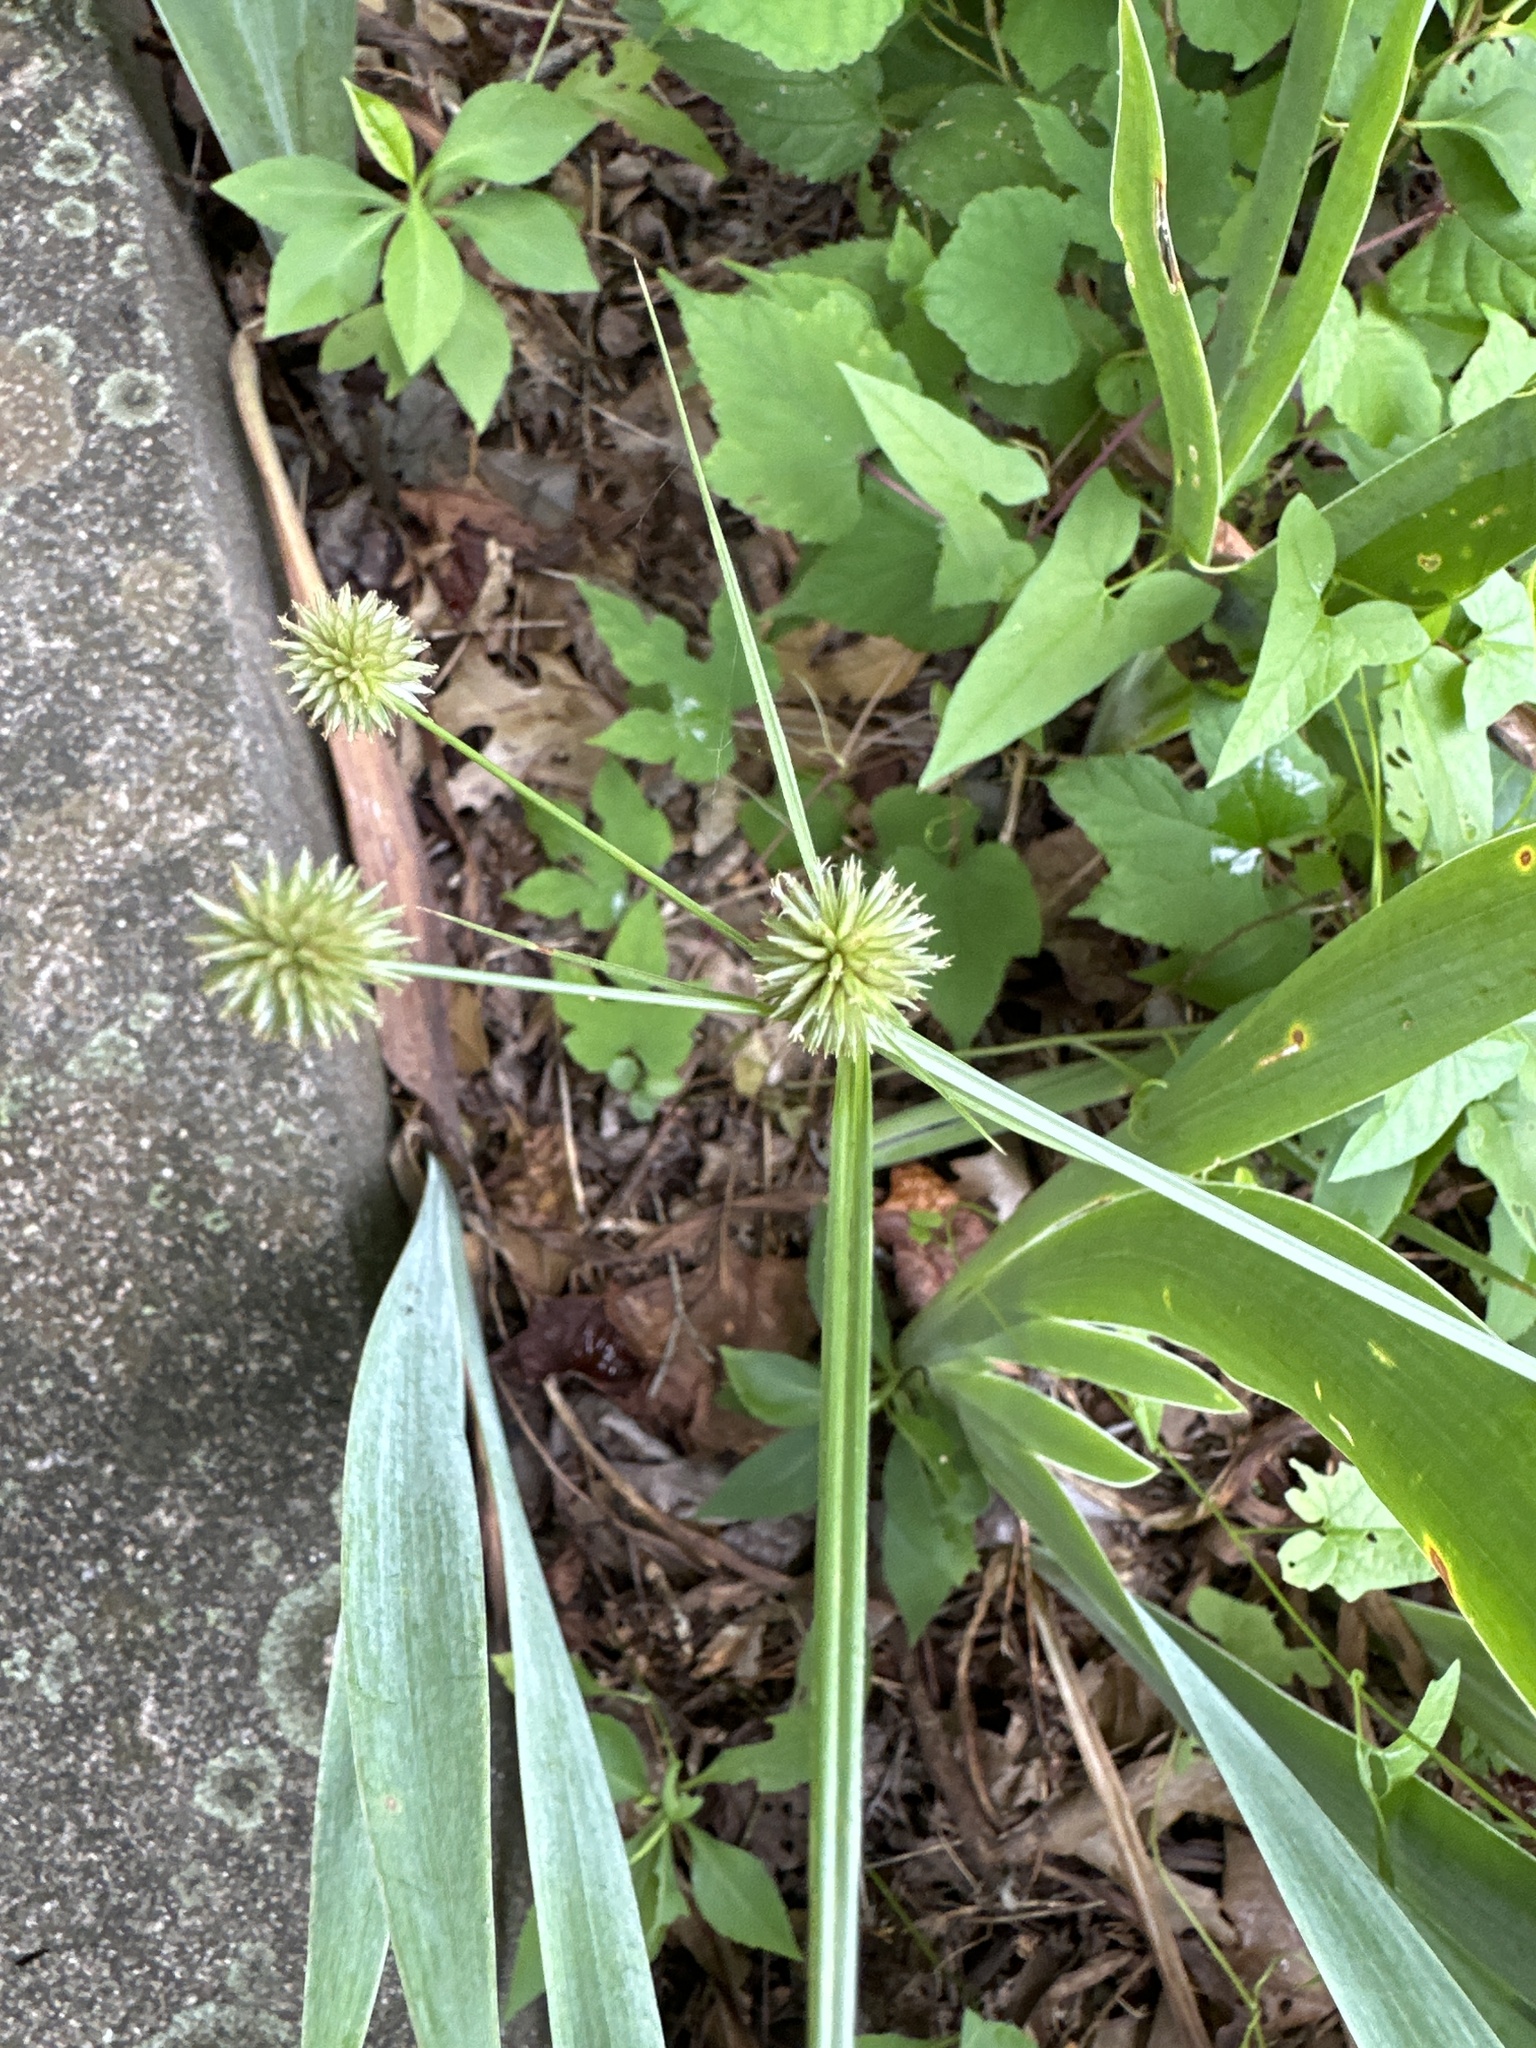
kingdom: Plantae
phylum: Tracheophyta
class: Liliopsida
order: Poales
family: Cyperaceae
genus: Cyperus
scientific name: Cyperus echinatus
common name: Teasel sedge
